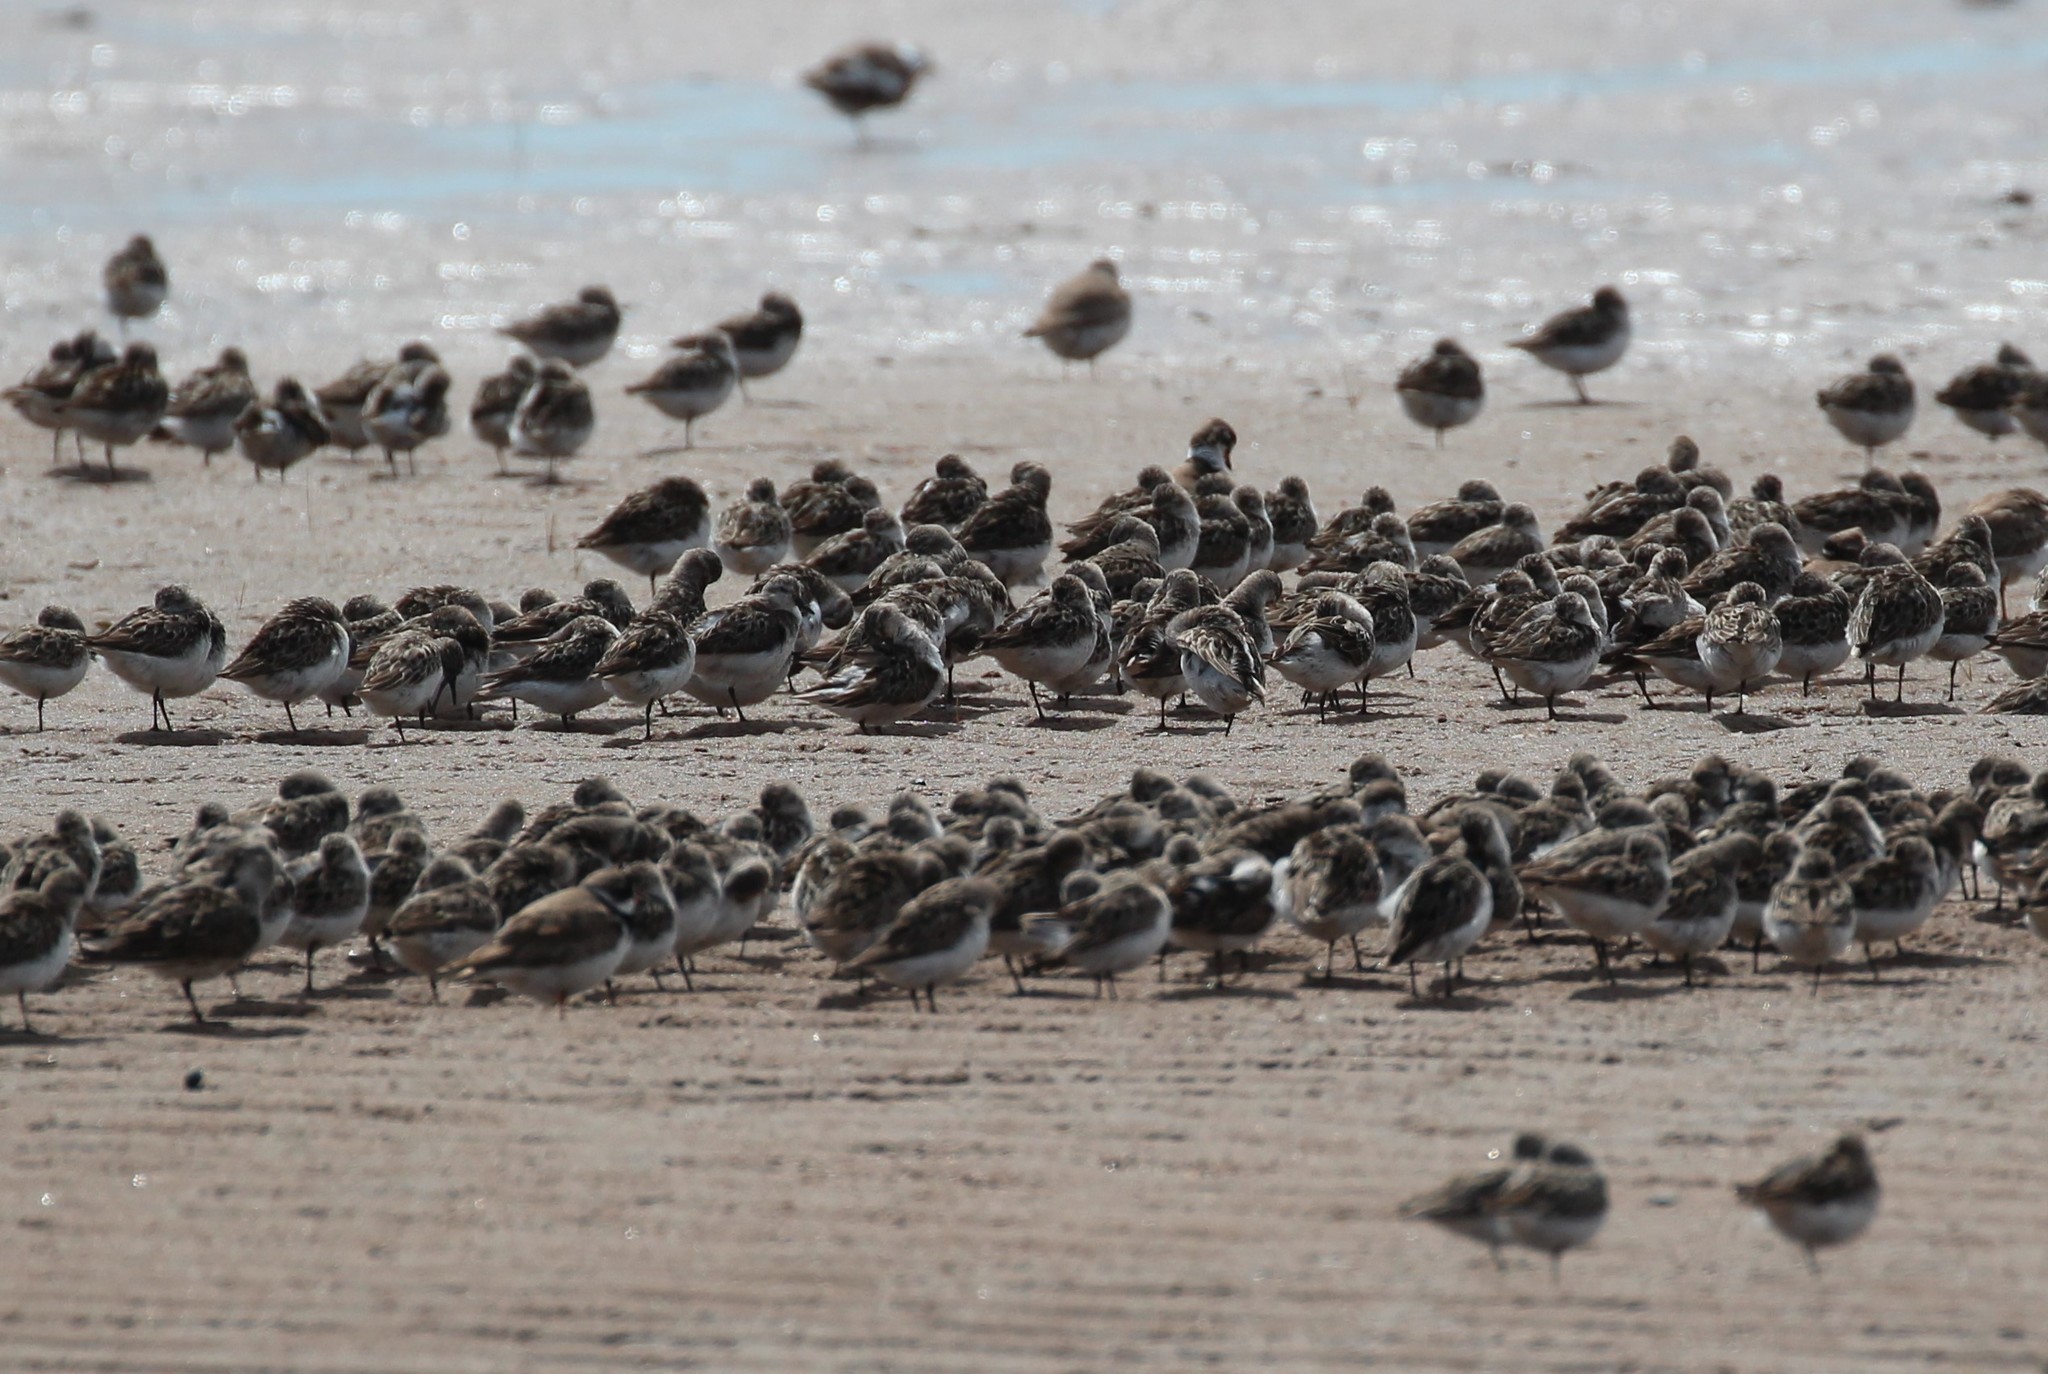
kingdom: Animalia
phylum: Chordata
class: Aves
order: Charadriiformes
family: Scolopacidae
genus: Calidris
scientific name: Calidris pusilla
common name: Semipalmated sandpiper
